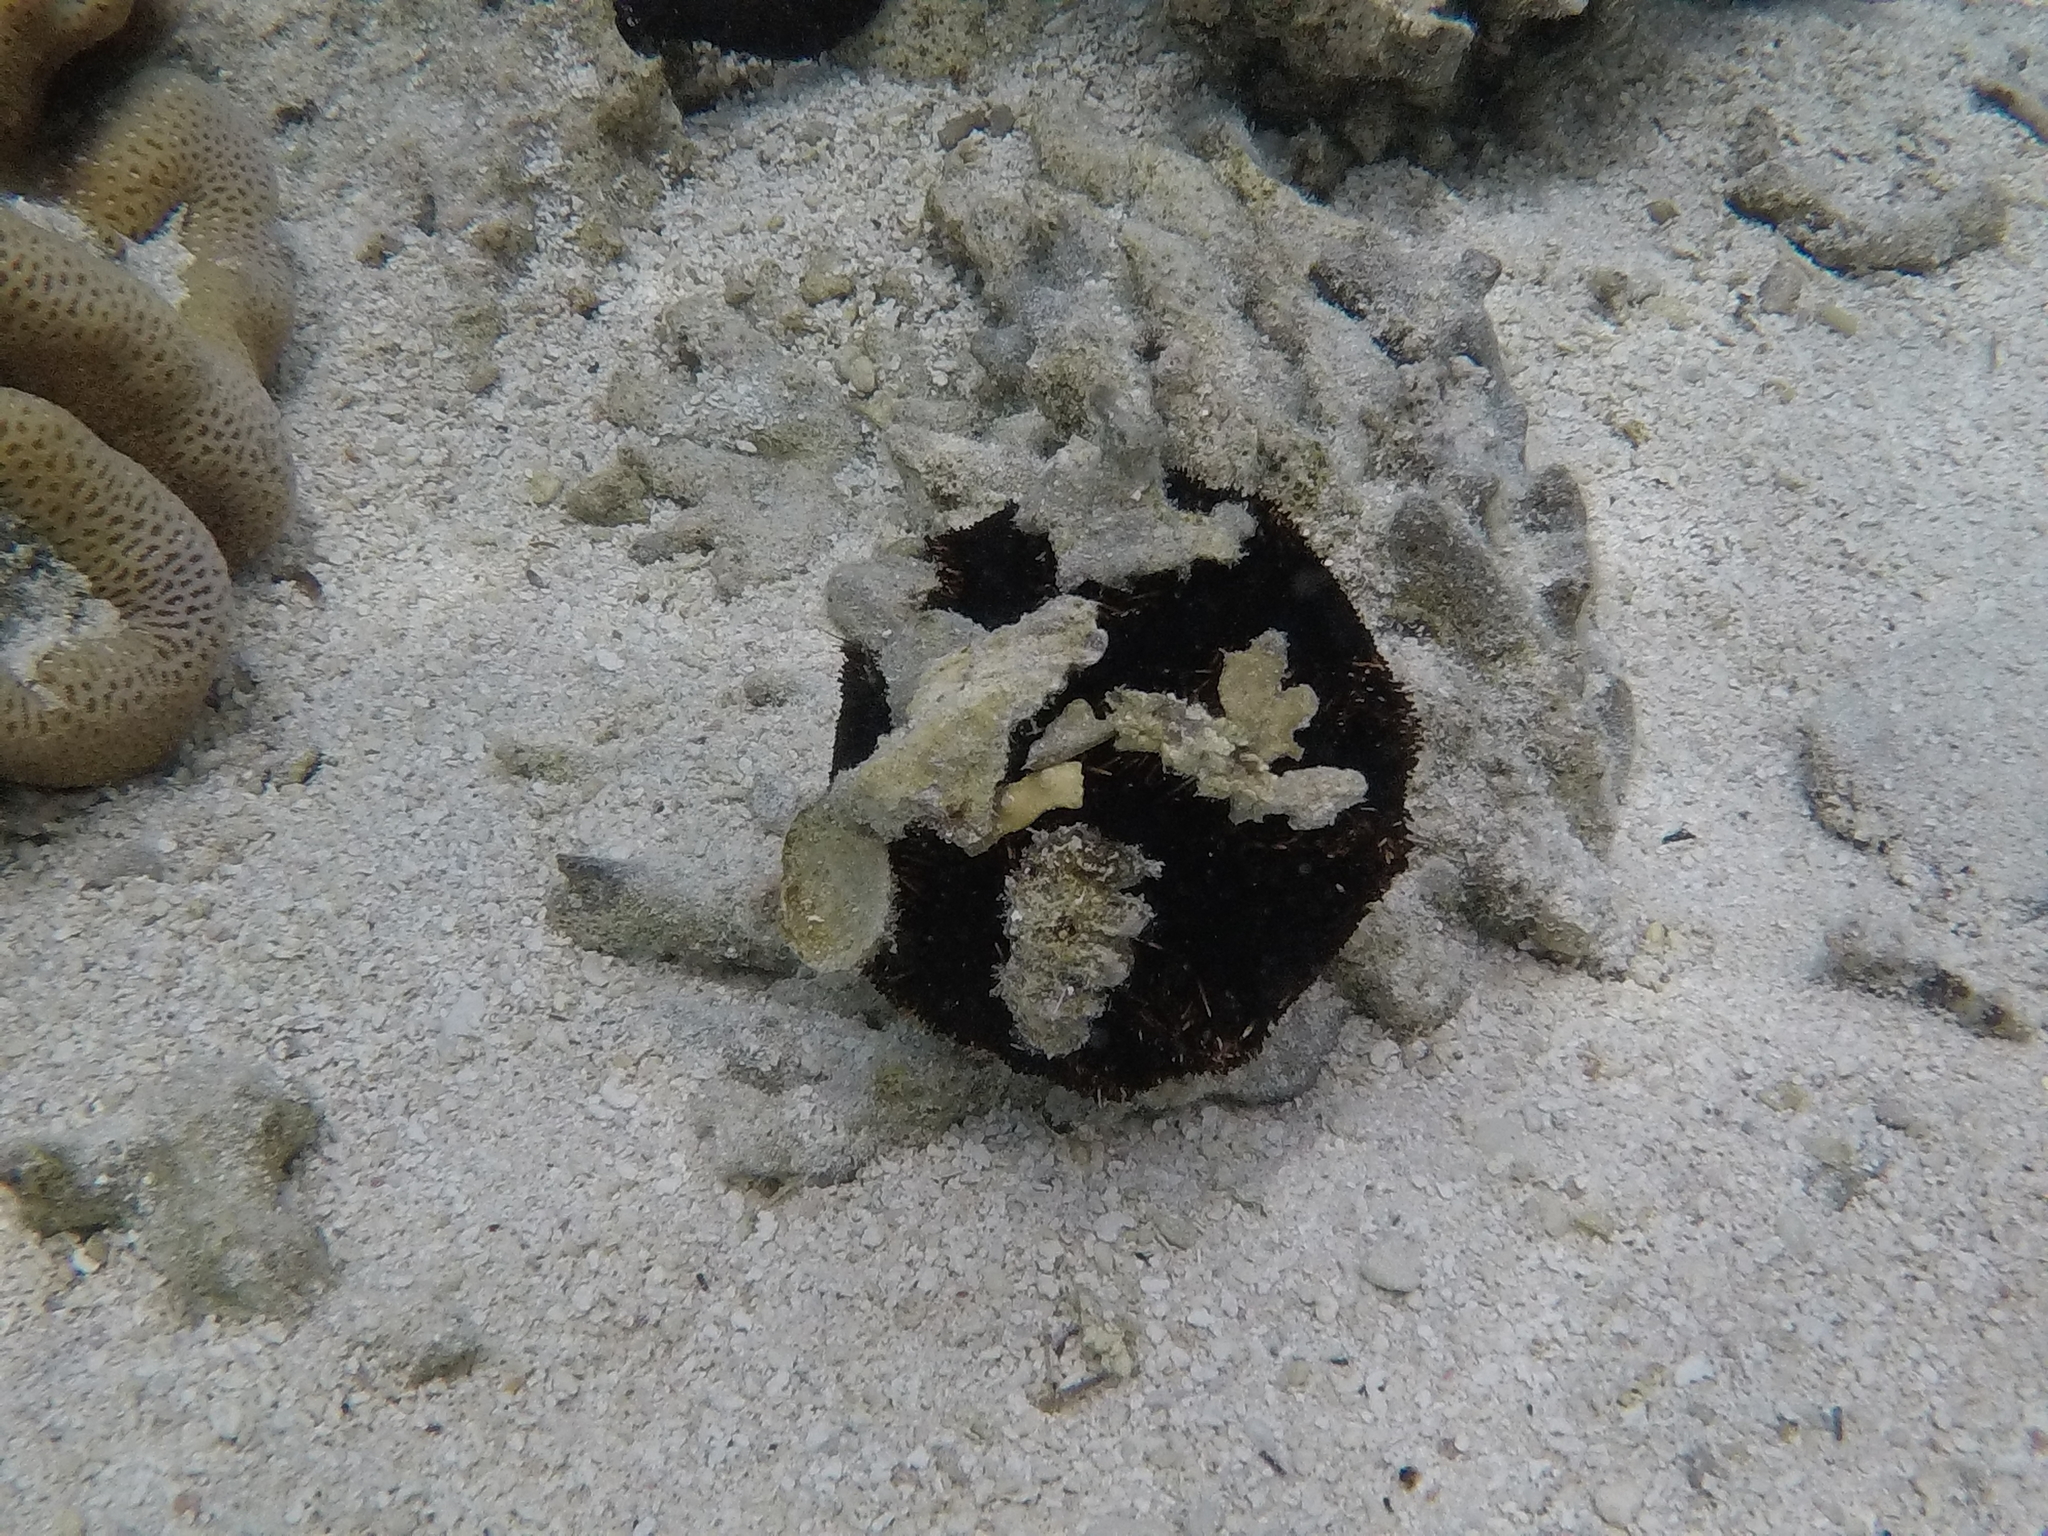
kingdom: Animalia
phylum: Echinodermata
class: Echinoidea
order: Camarodonta
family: Toxopneustidae
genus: Tripneustes
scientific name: Tripneustes gratilla
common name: Bischofsmützenseeigel
